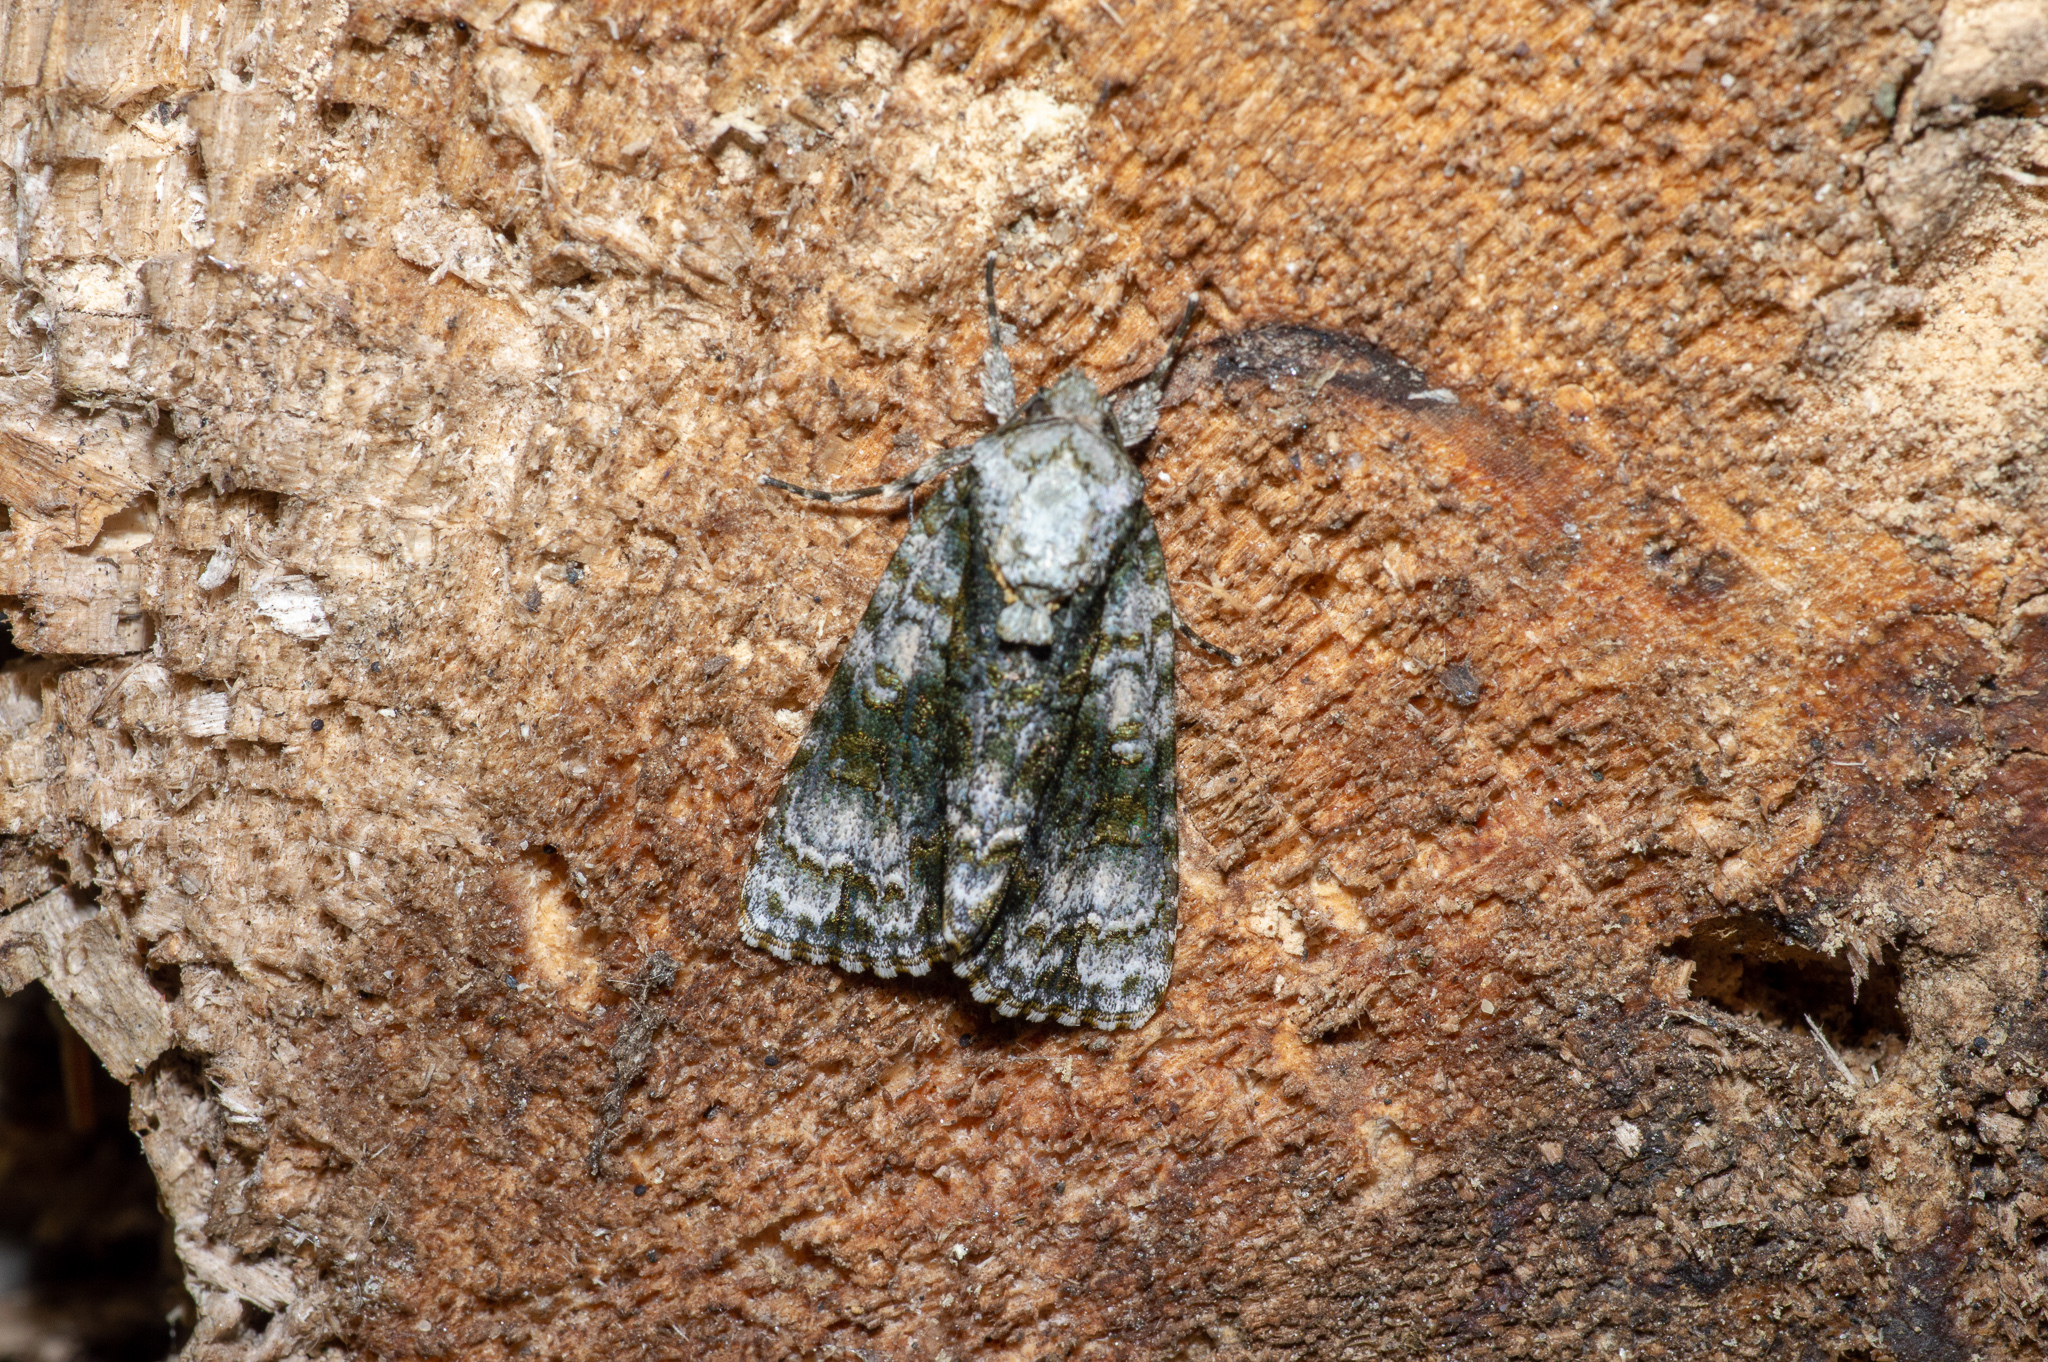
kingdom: Animalia
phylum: Arthropoda
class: Insecta
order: Lepidoptera
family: Noctuidae
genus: Acronicta
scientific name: Acronicta superans
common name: Splendid dagger
